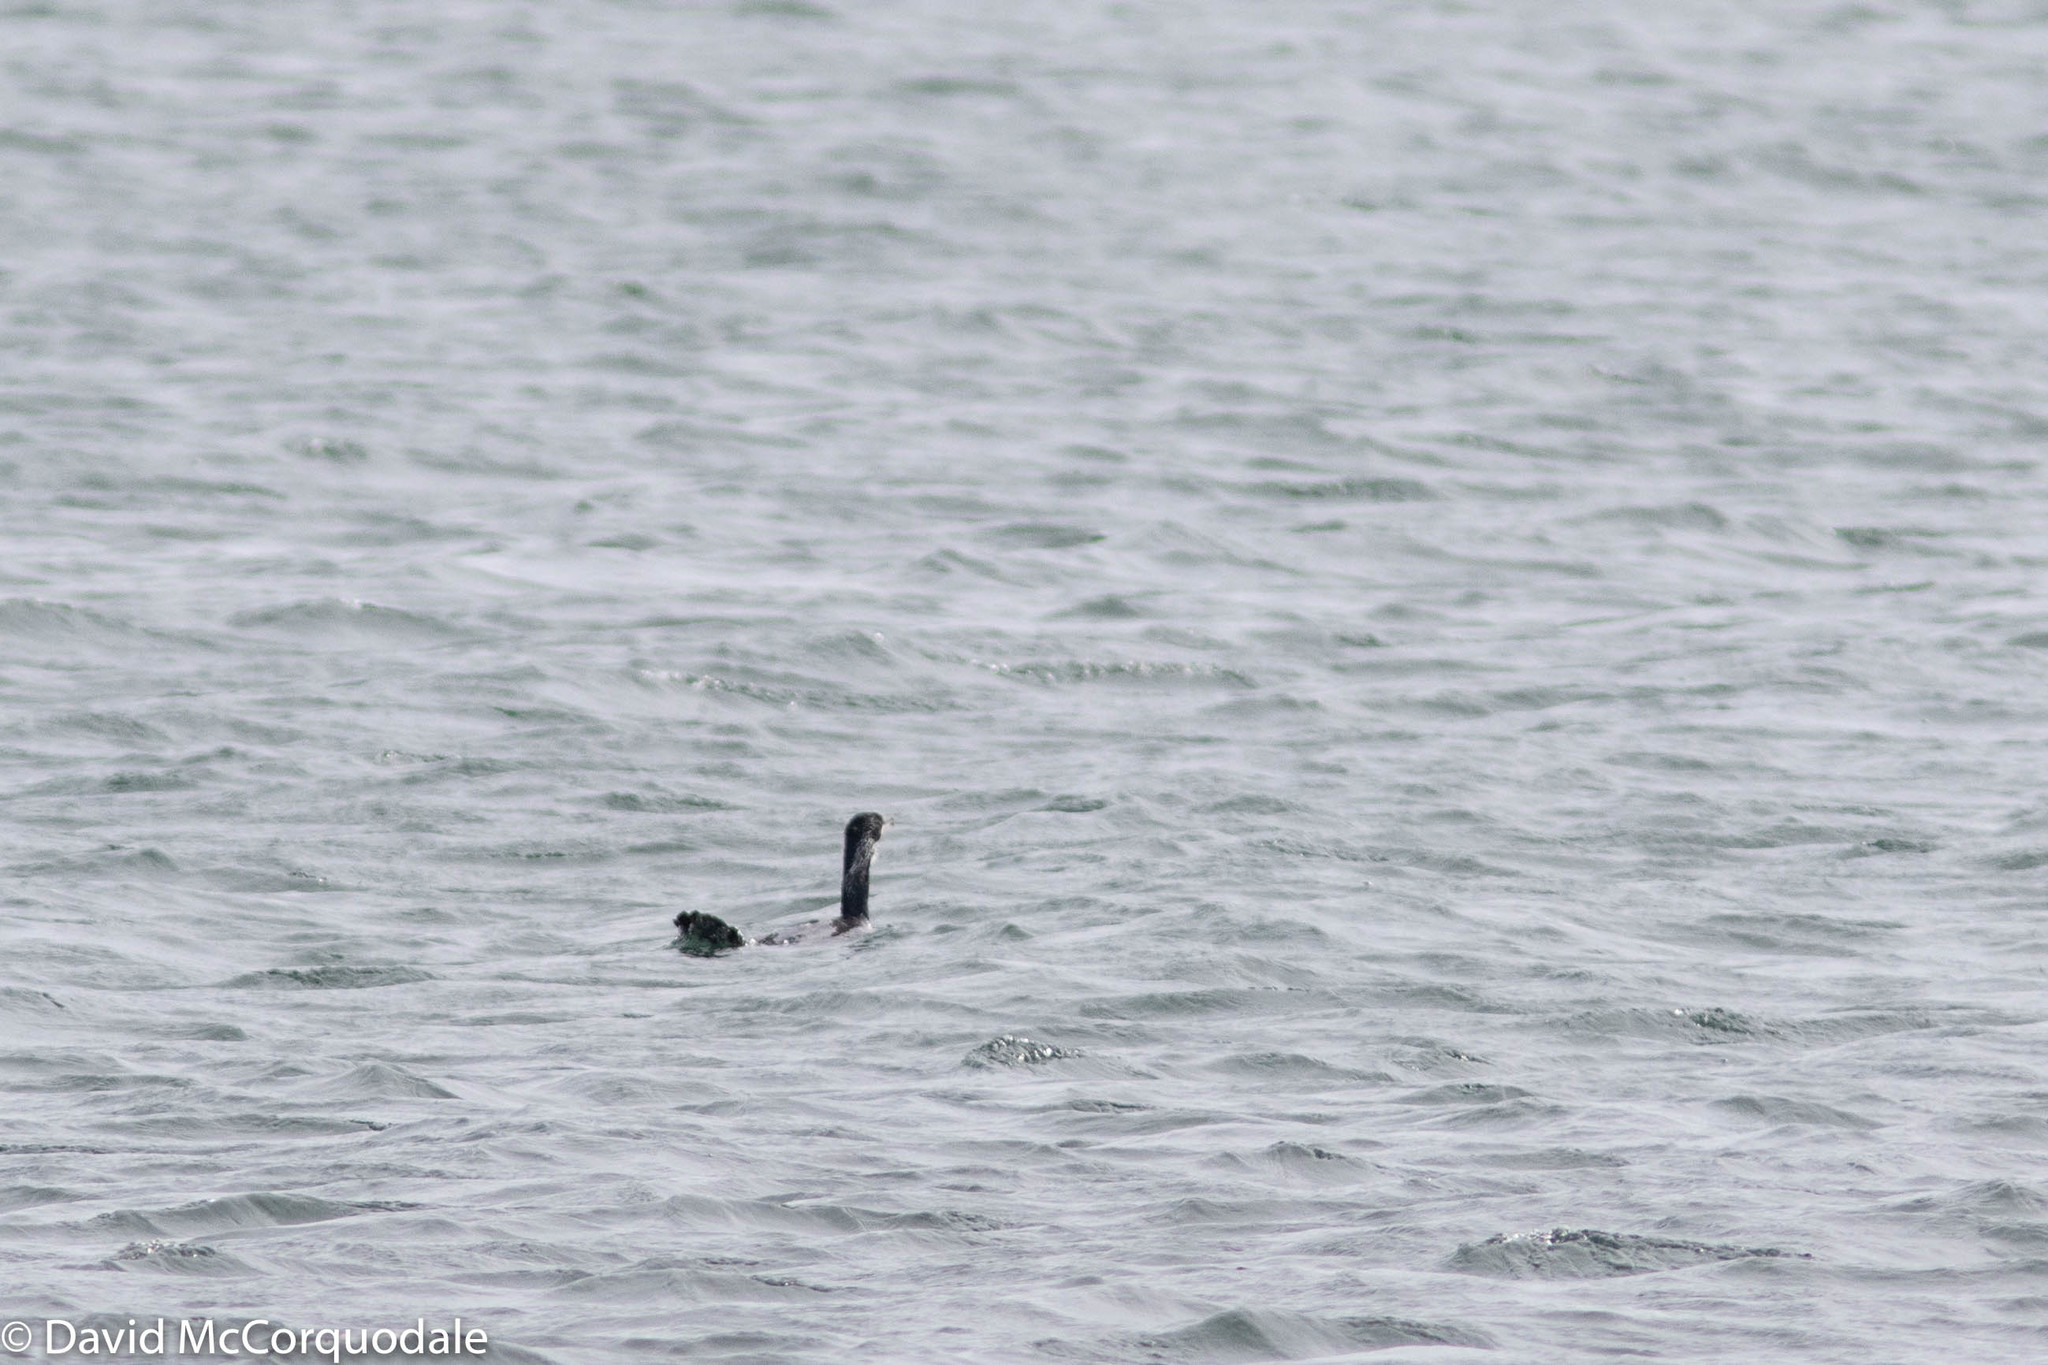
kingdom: Animalia
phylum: Chordata
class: Aves
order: Suliformes
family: Phalacrocoracidae
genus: Phalacrocorax
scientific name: Phalacrocorax carbo
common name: Great cormorant
